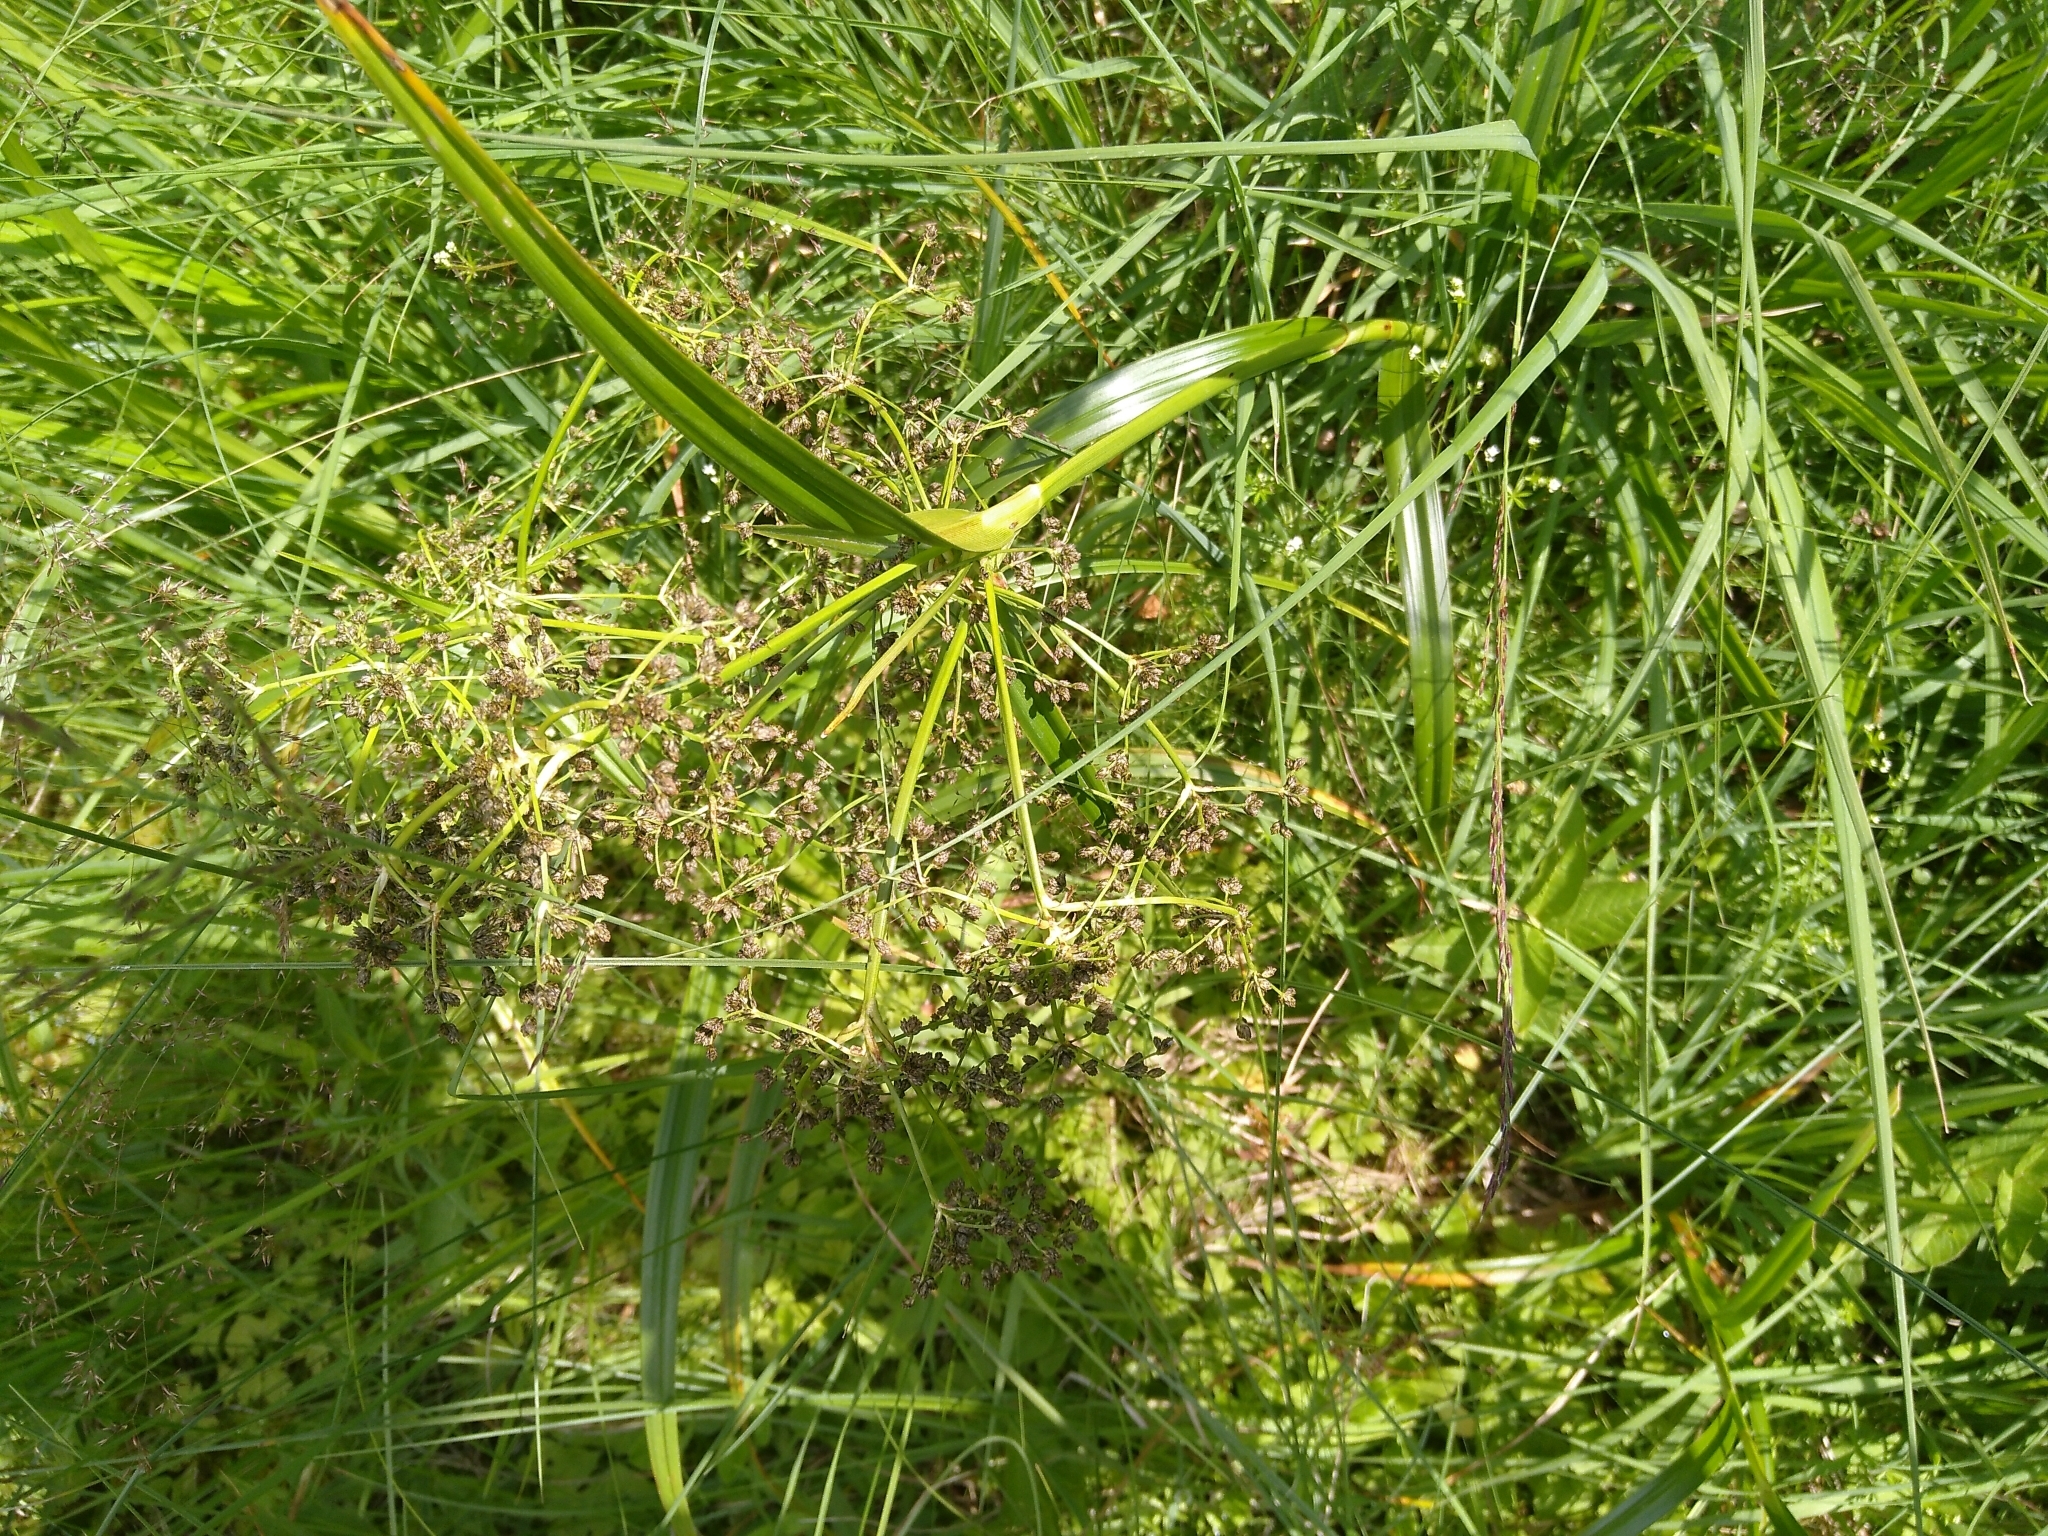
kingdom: Plantae
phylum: Tracheophyta
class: Liliopsida
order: Poales
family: Cyperaceae
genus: Scirpus
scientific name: Scirpus sylvaticus
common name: Wood club-rush
